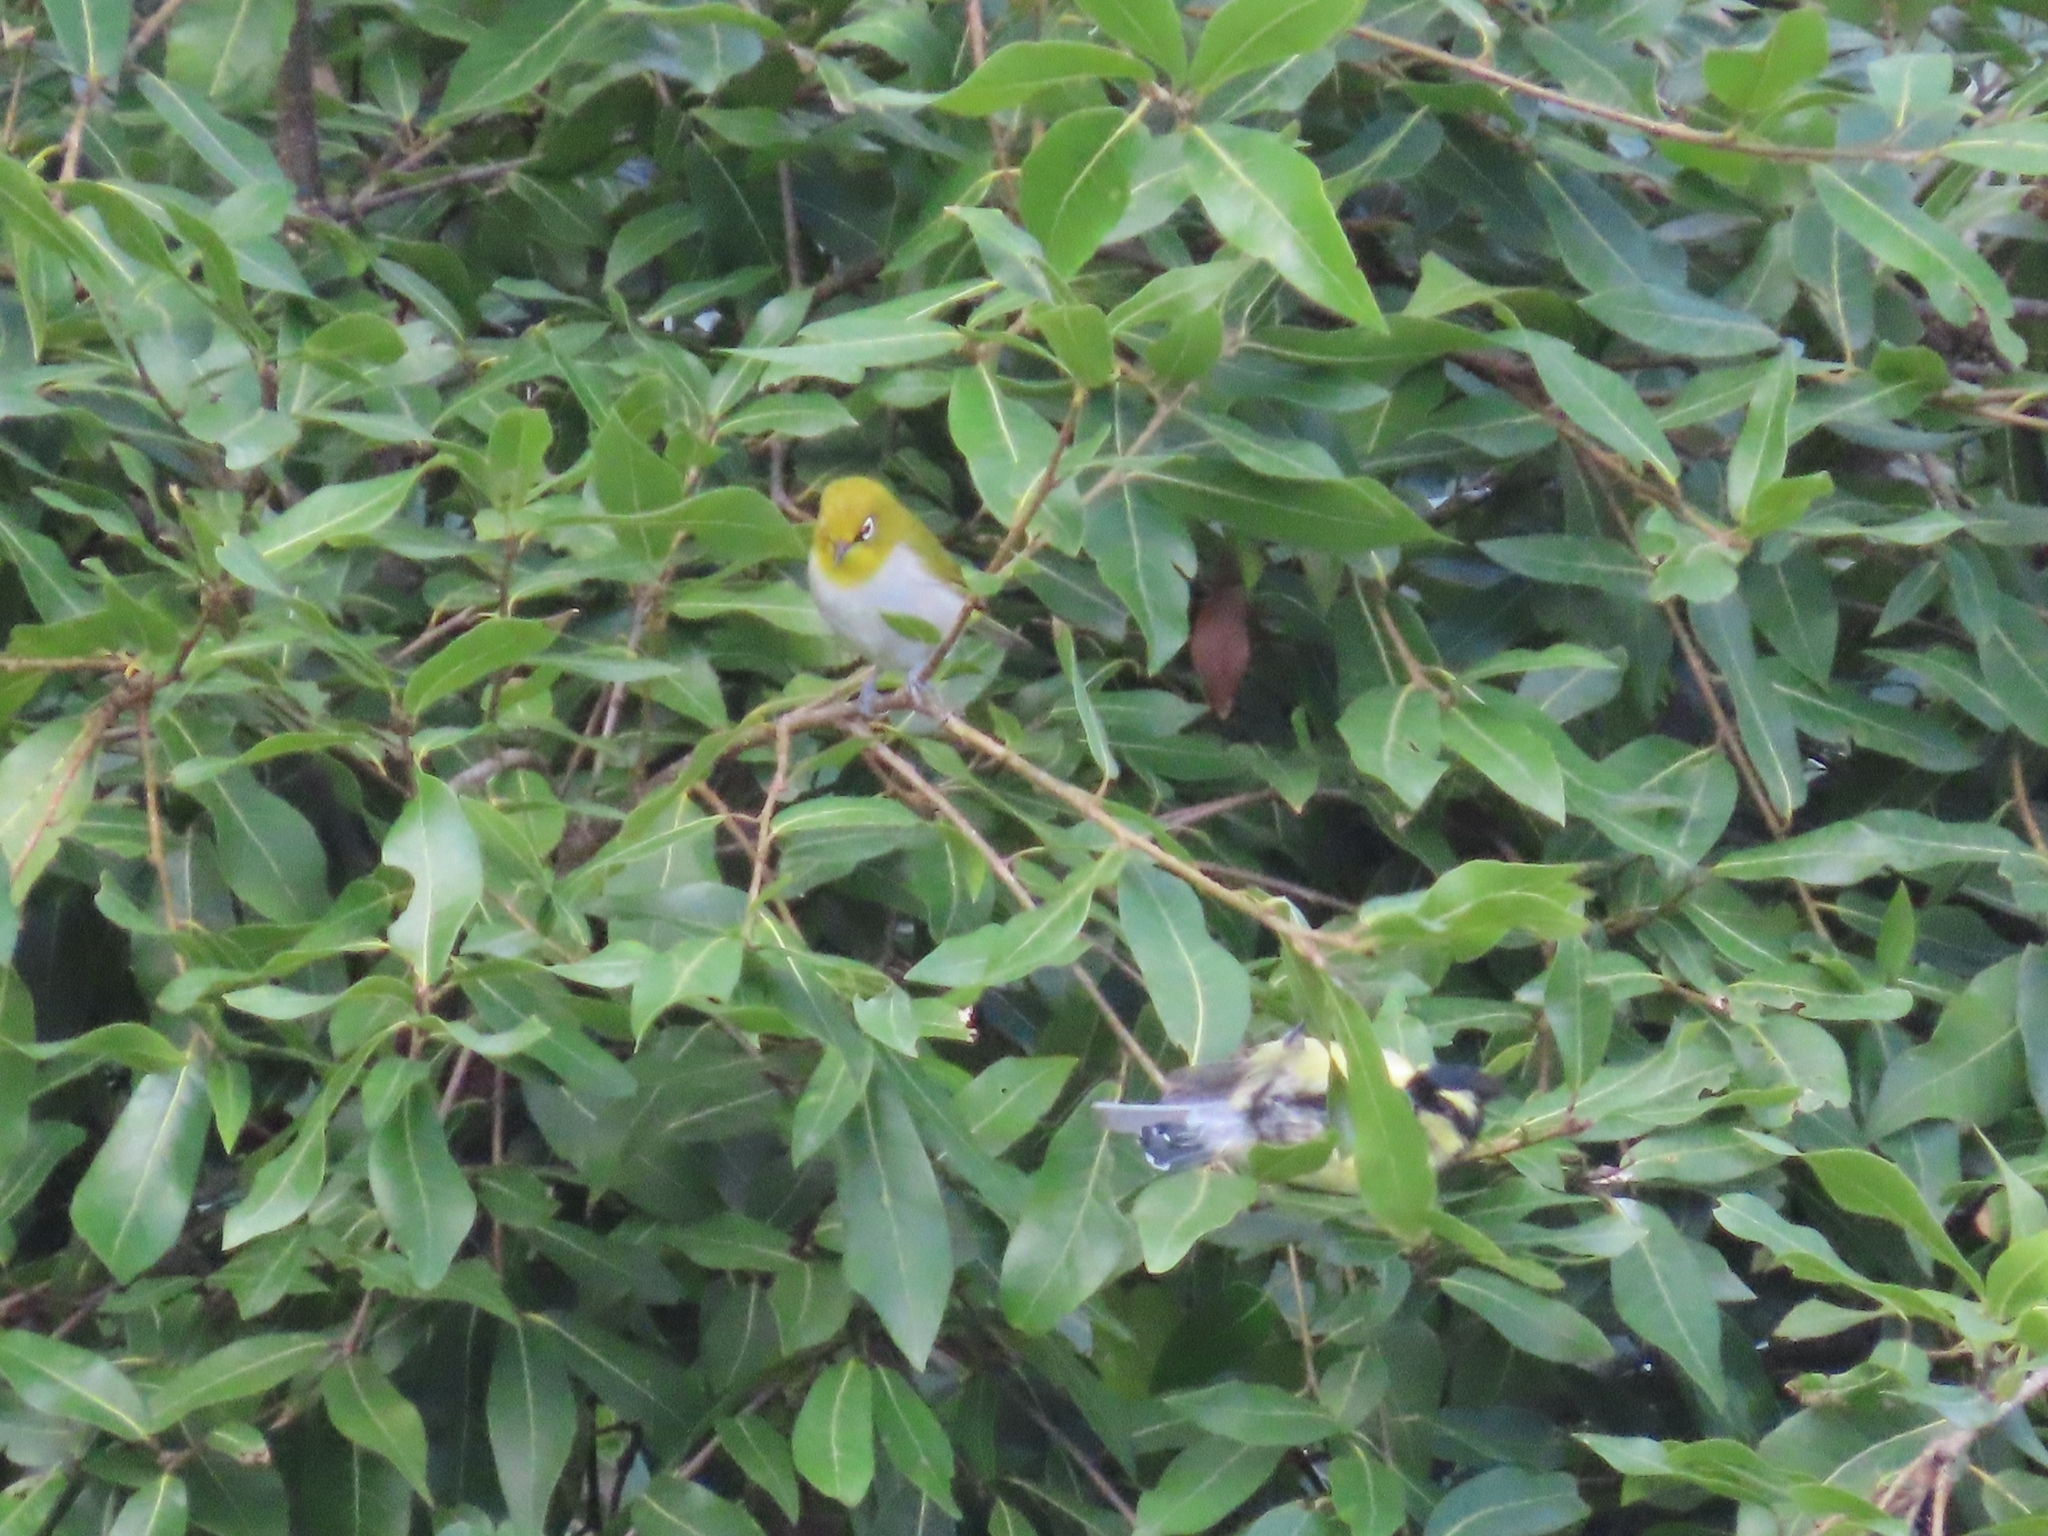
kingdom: Animalia
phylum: Chordata
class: Aves
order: Passeriformes
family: Zosteropidae
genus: Zosterops
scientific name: Zosterops palpebrosus
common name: Oriental white-eye
